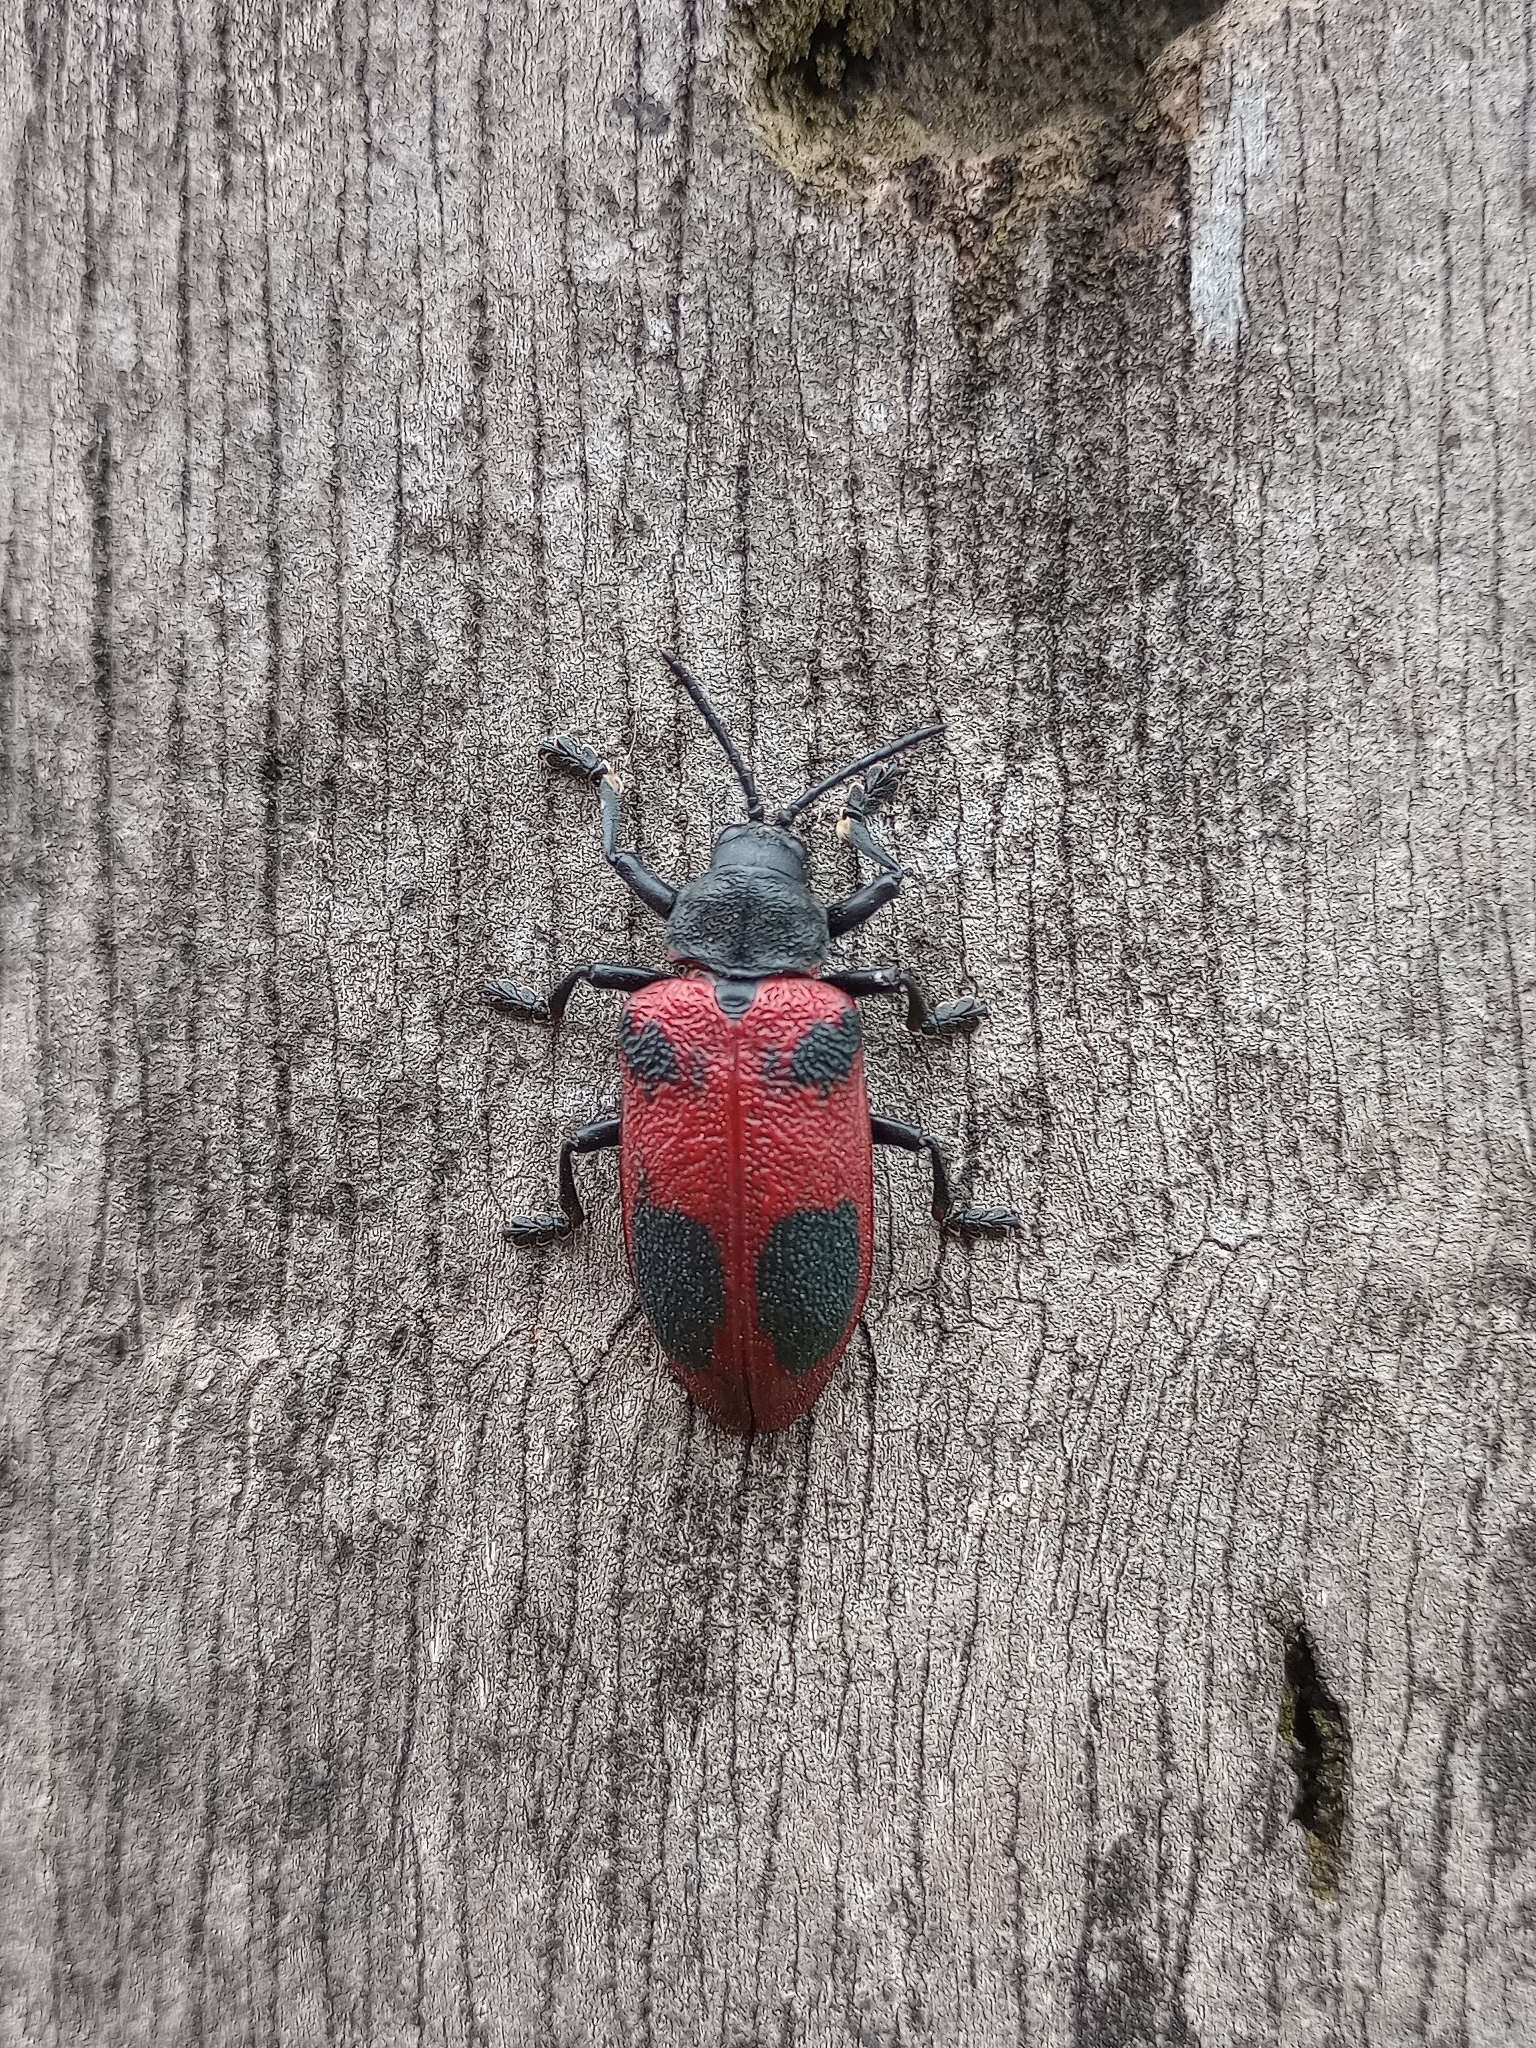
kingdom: Animalia
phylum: Arthropoda
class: Insecta
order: Coleoptera
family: Chrysomelidae
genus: Coraliomela
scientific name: Coraliomela quadrimaculata
